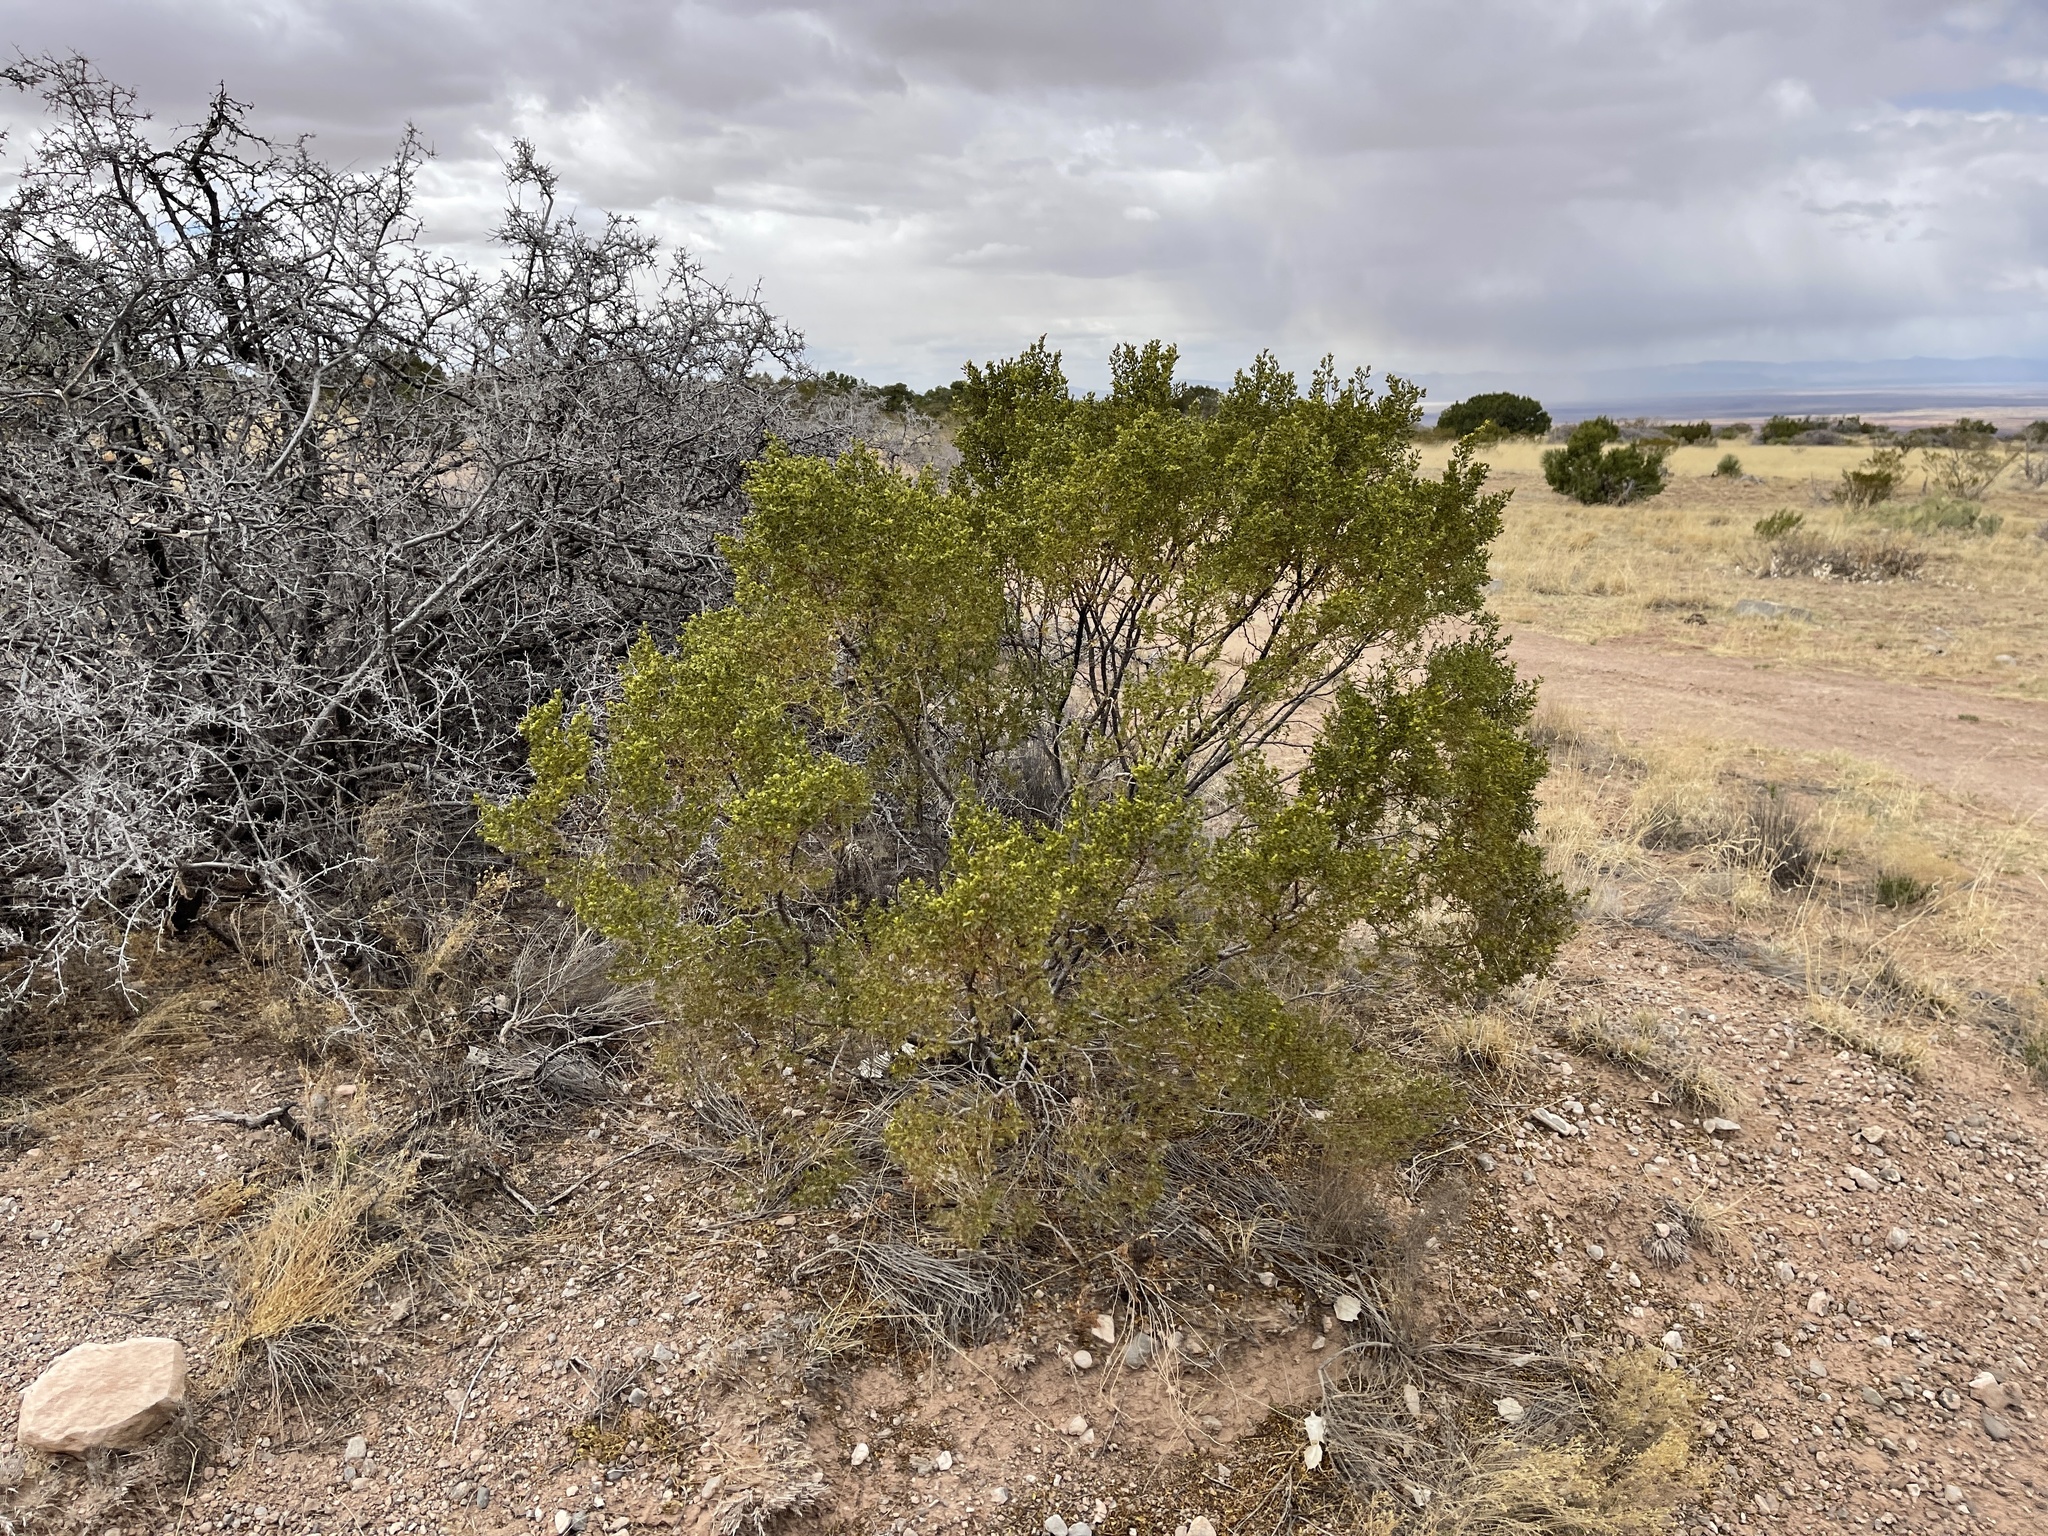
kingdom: Plantae
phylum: Tracheophyta
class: Magnoliopsida
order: Zygophyllales
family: Zygophyllaceae
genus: Larrea
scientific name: Larrea tridentata
